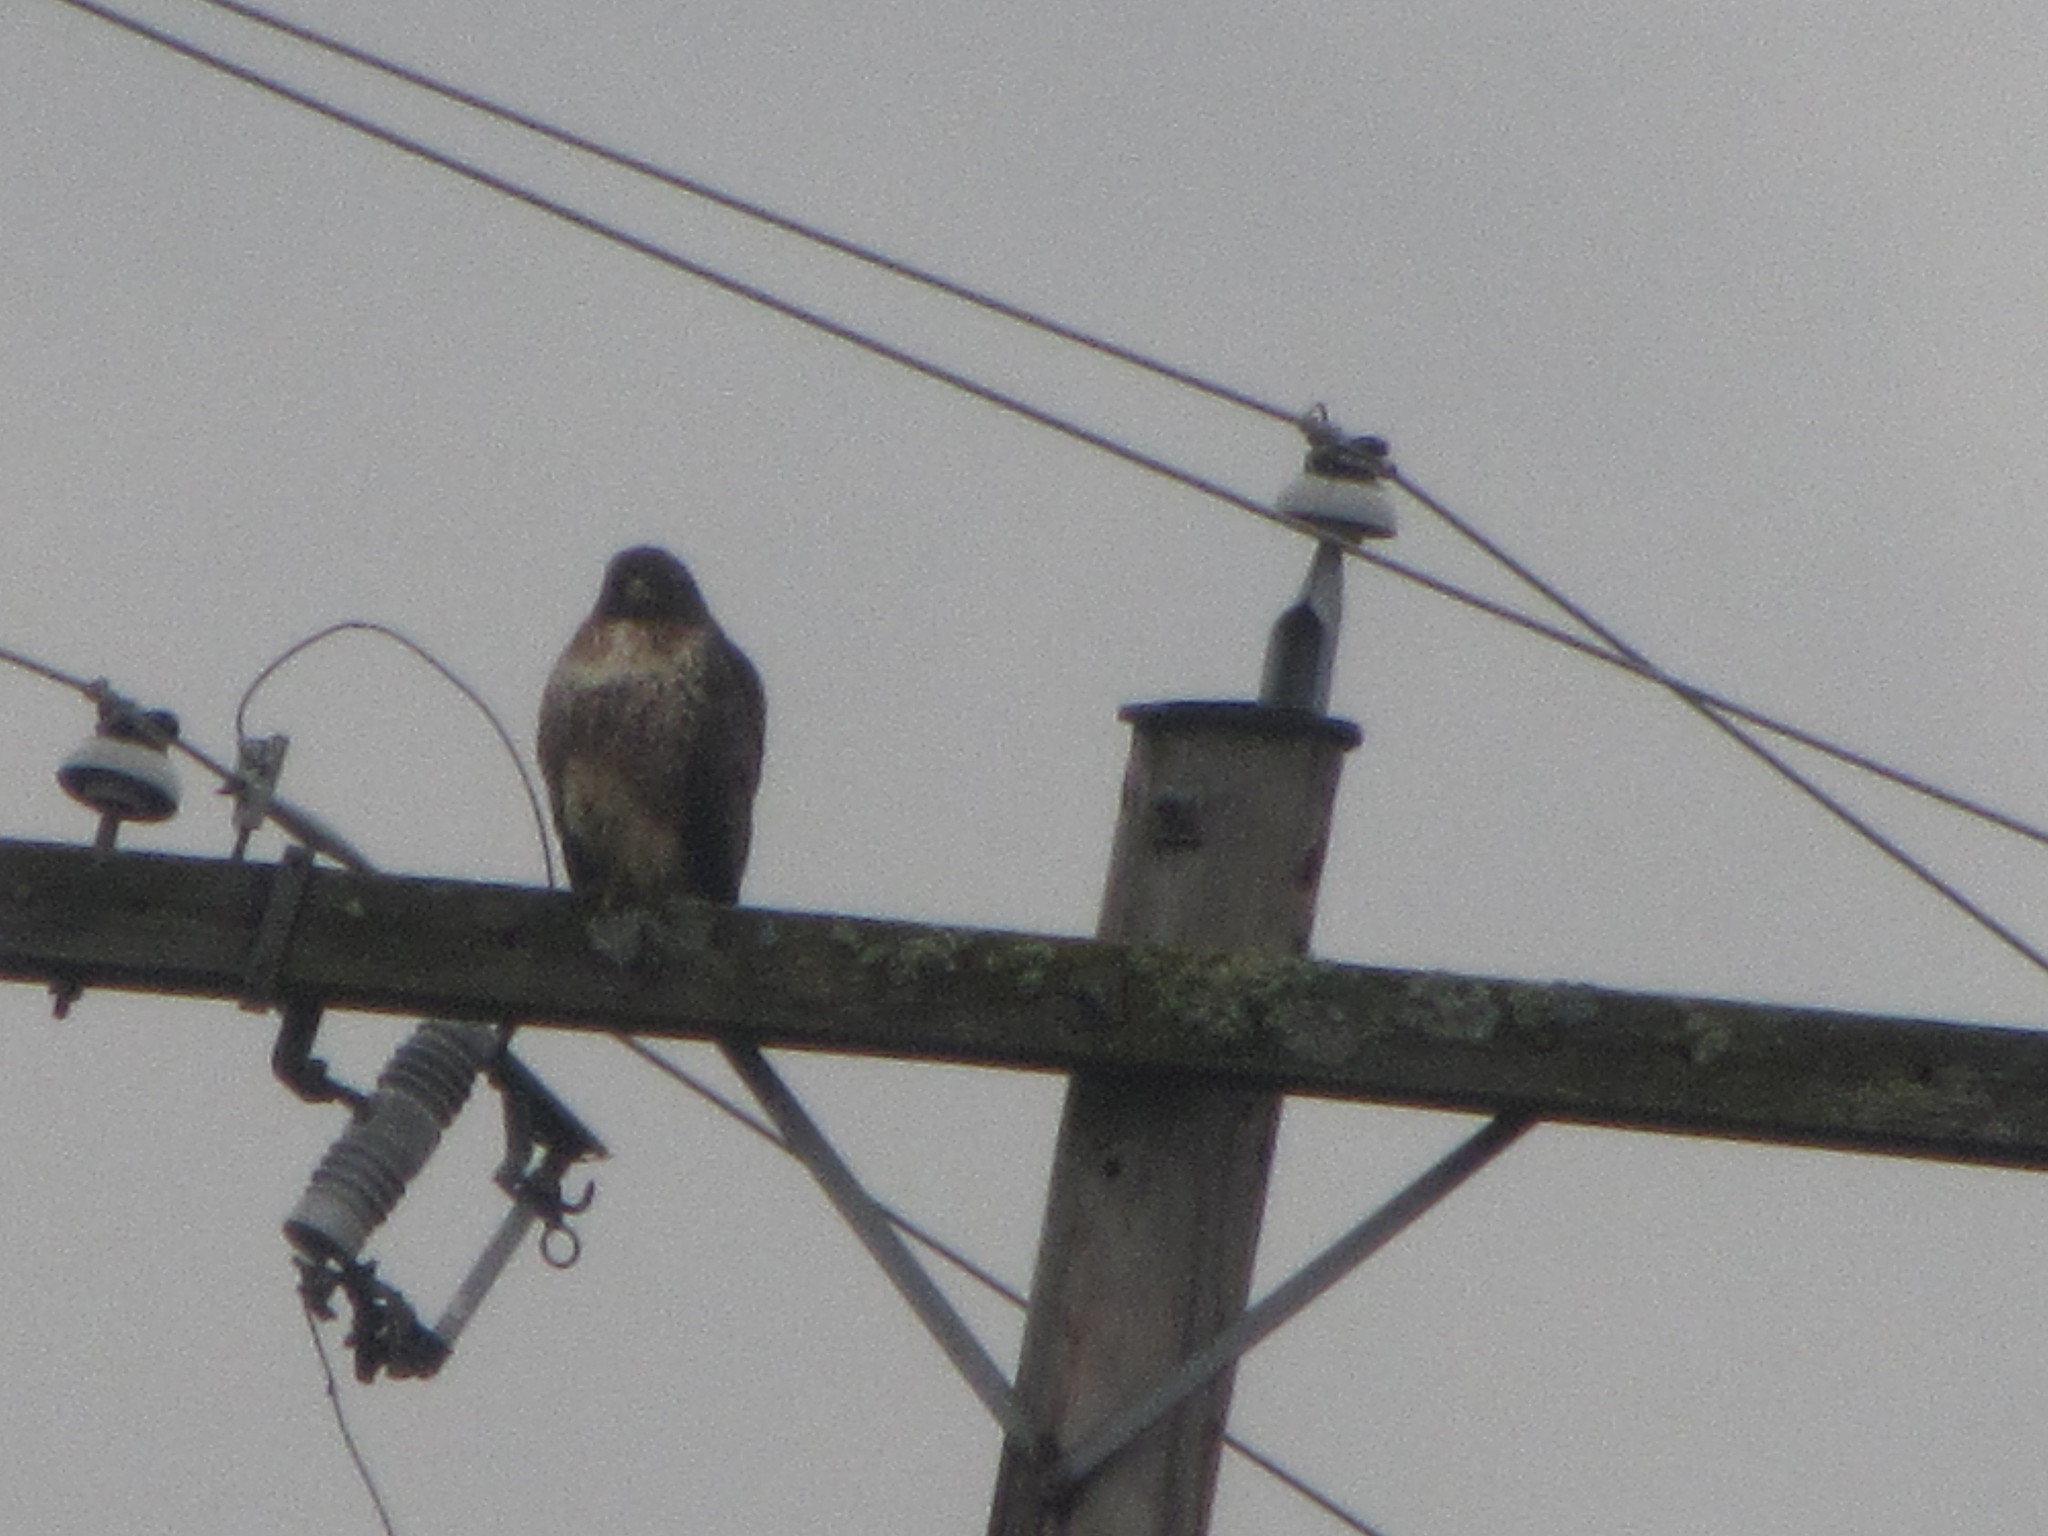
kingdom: Animalia
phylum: Chordata
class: Aves
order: Accipitriformes
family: Accipitridae
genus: Buteo
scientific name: Buteo jamaicensis
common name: Red-tailed hawk
